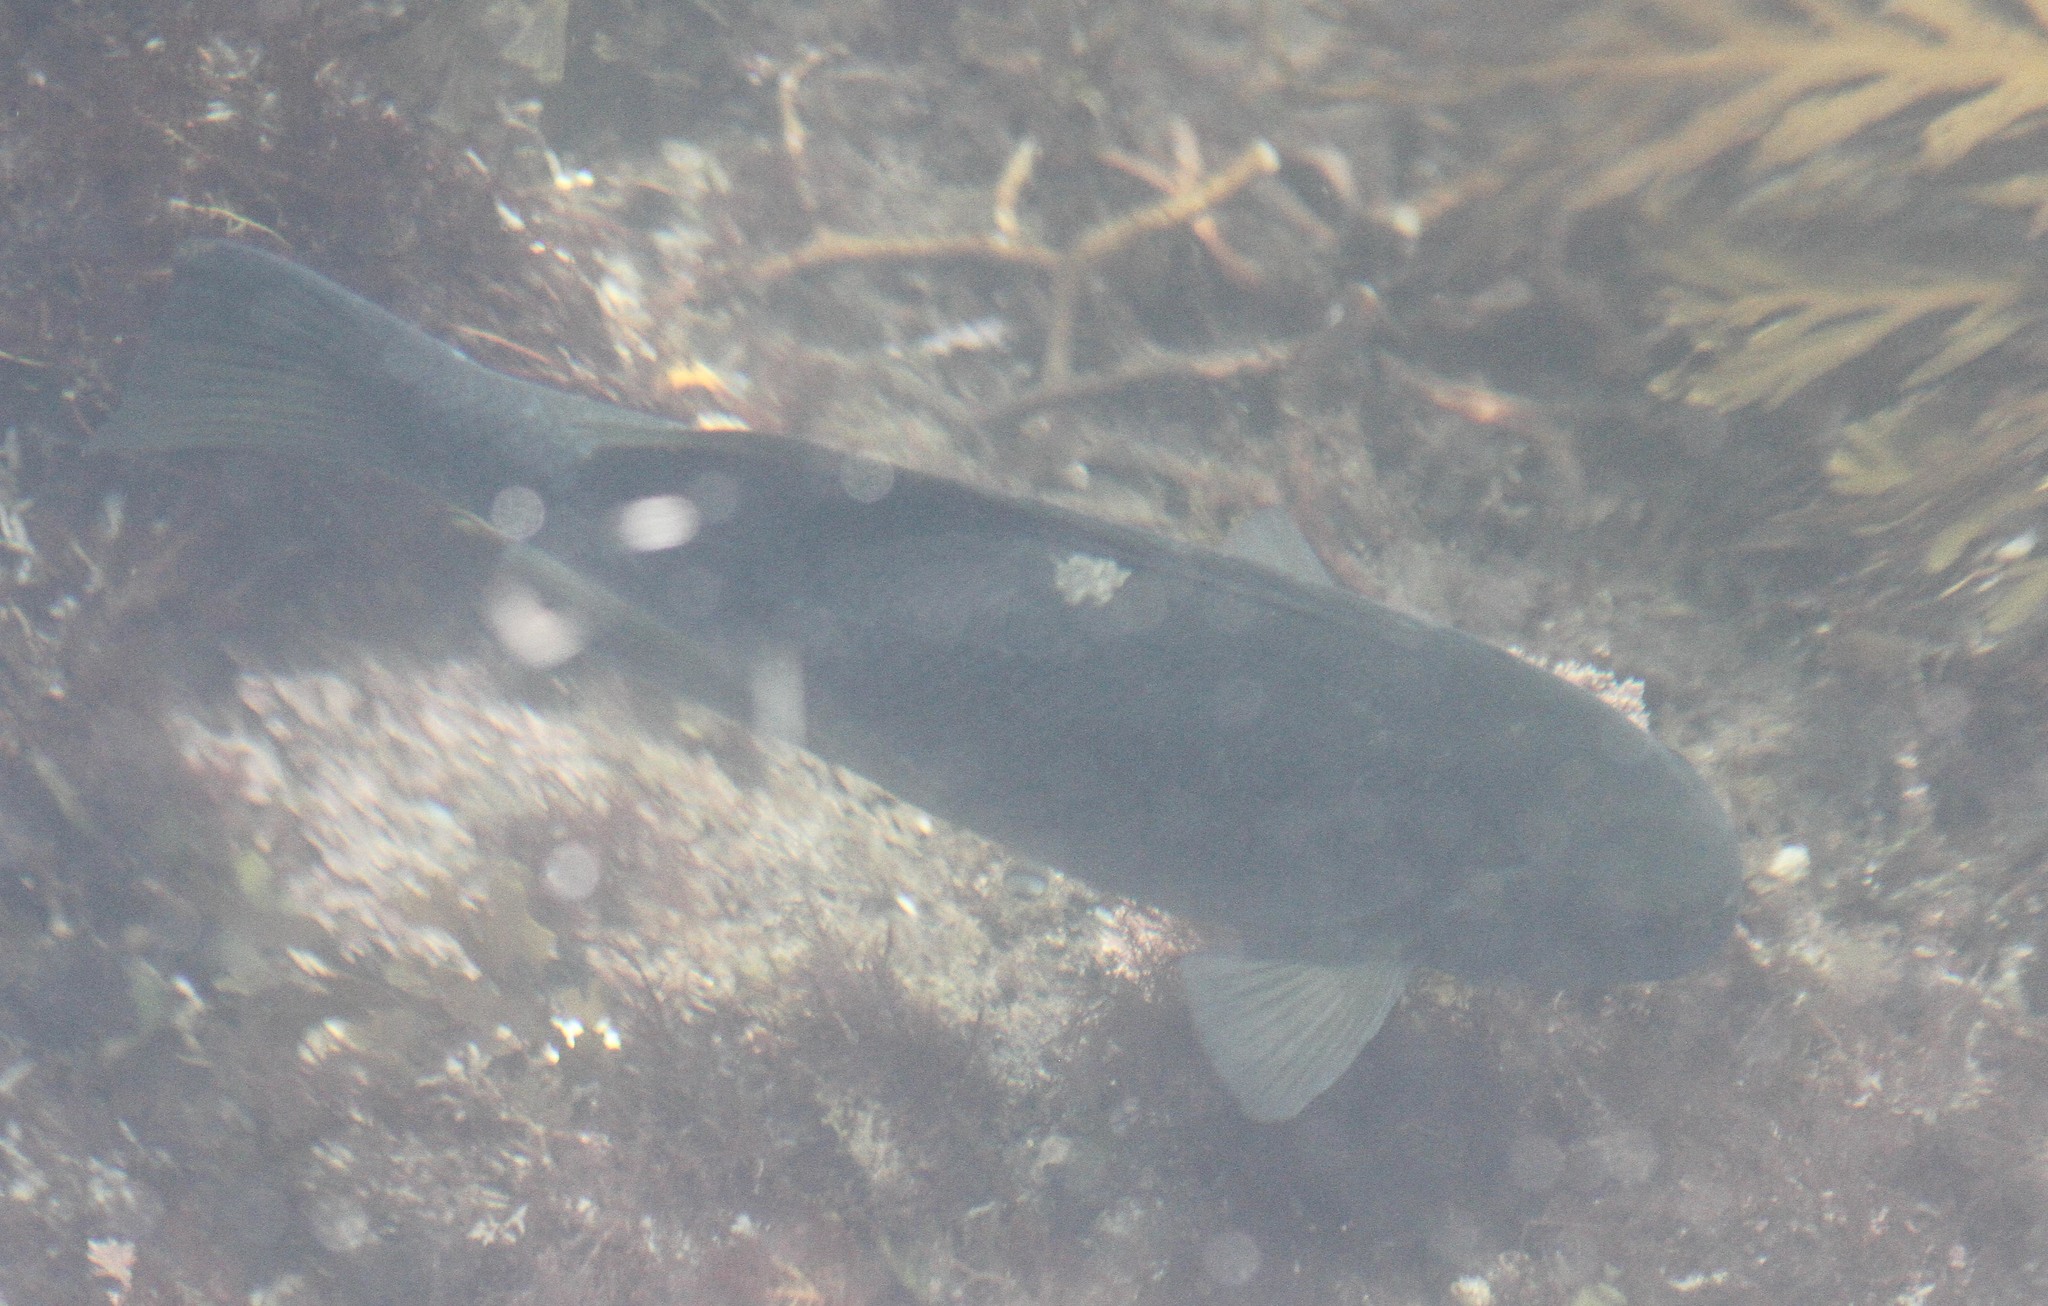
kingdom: Animalia
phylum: Chordata
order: Perciformes
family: Kyphosidae
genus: Girella
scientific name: Girella nigricans
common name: Opaleye
